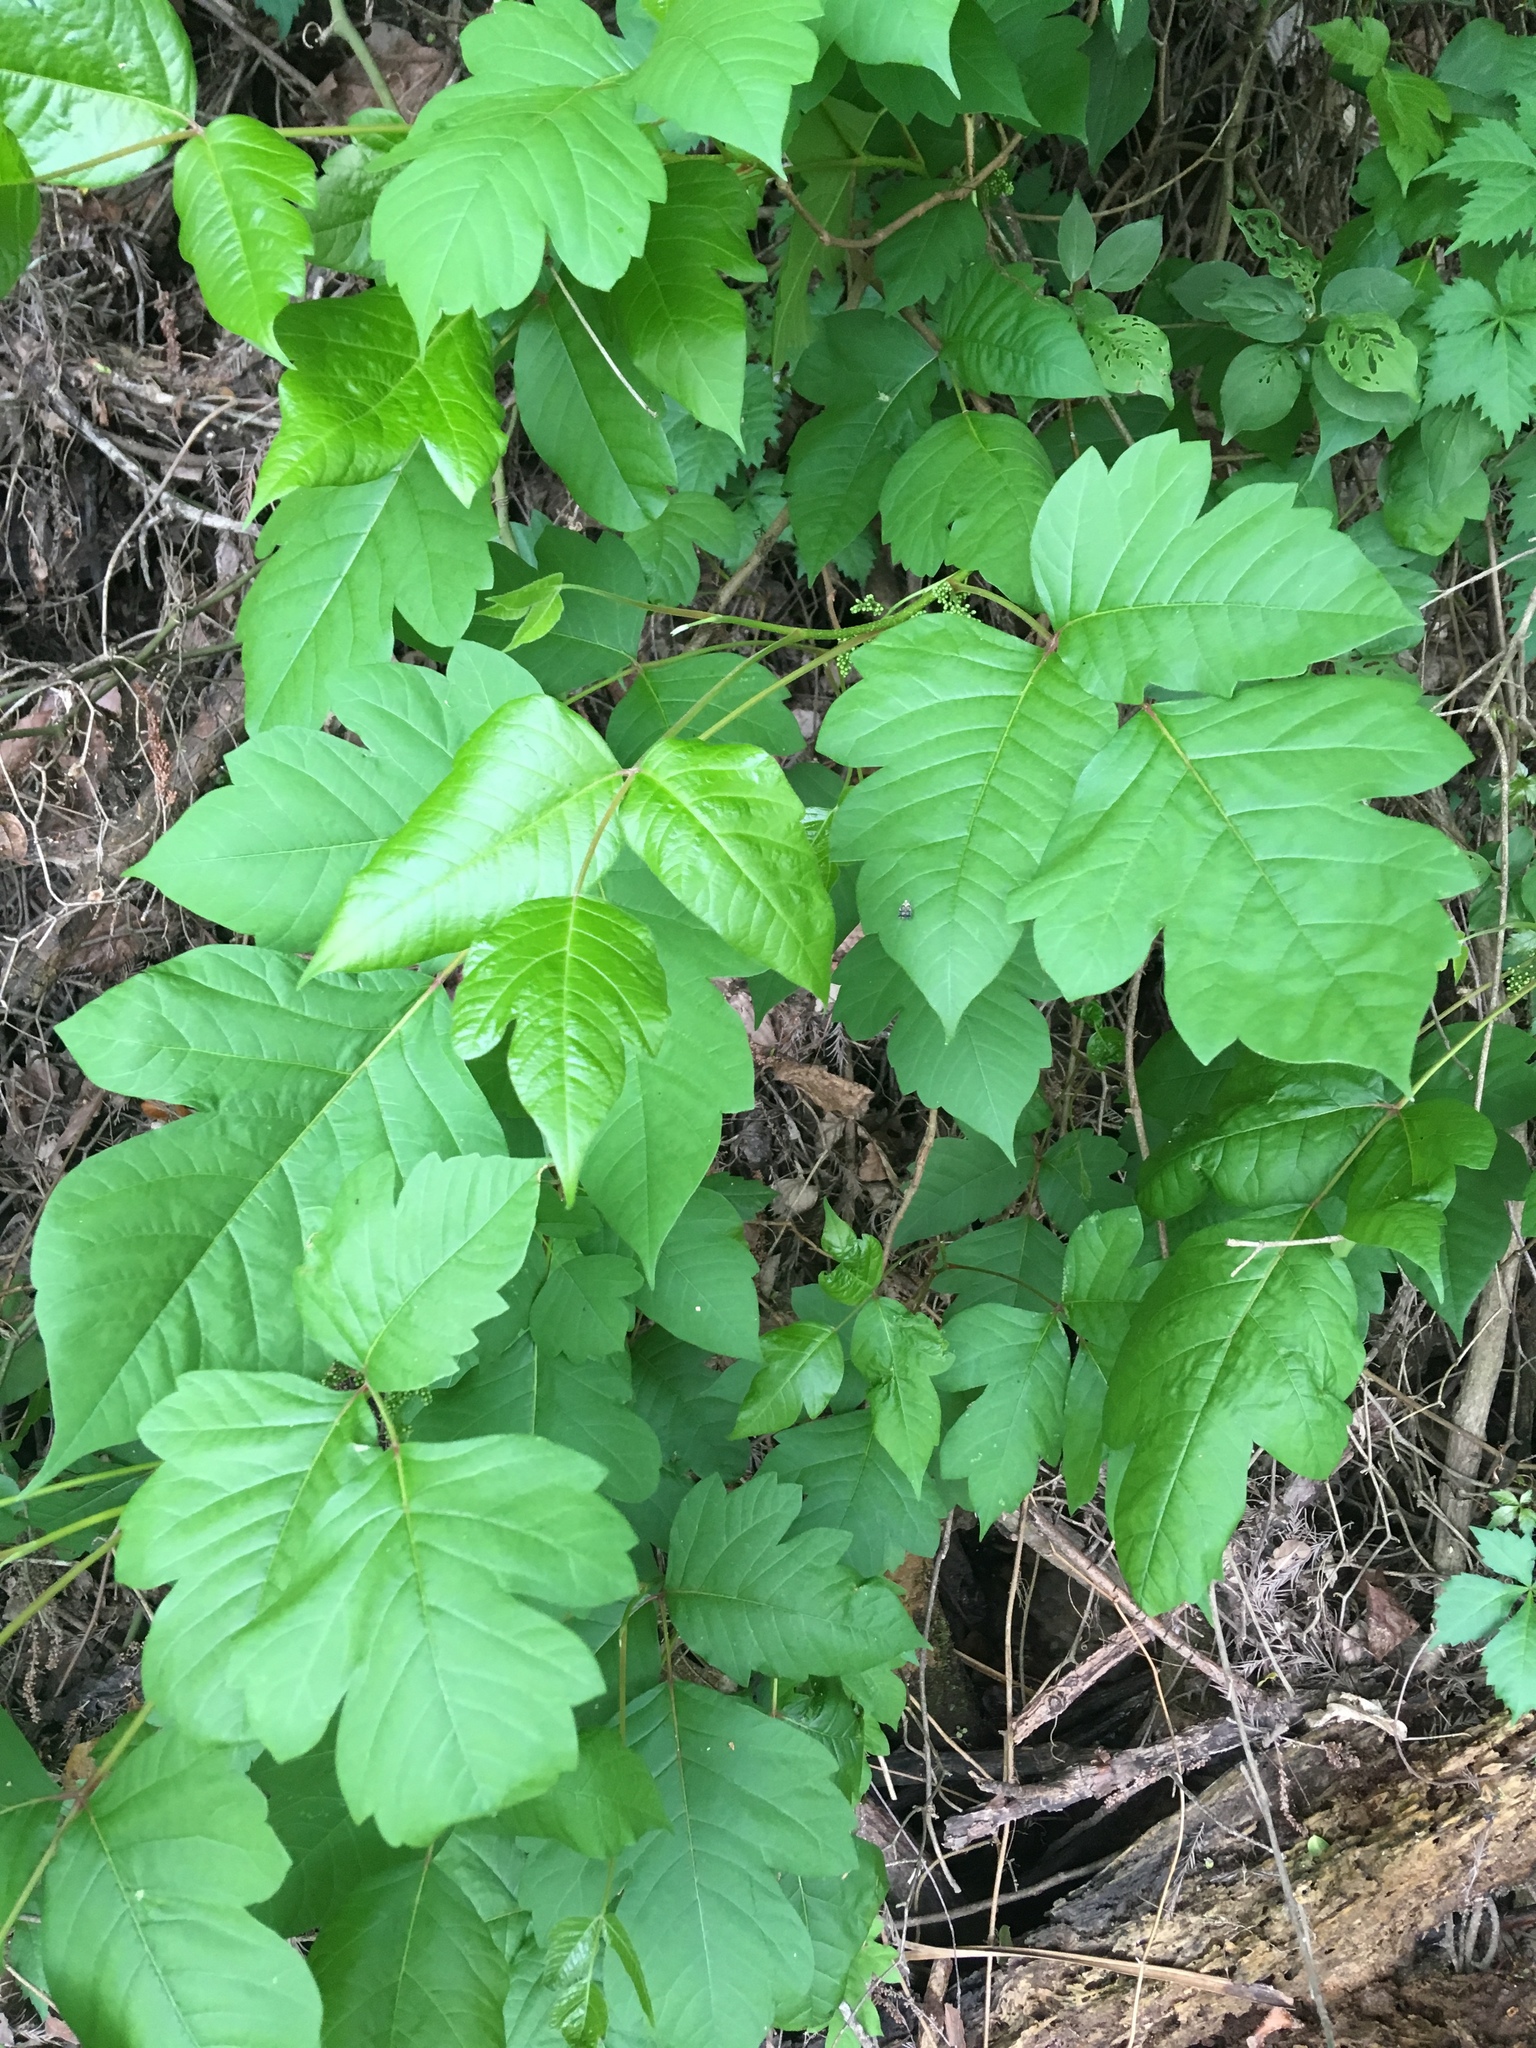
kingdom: Plantae
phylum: Tracheophyta
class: Magnoliopsida
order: Sapindales
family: Anacardiaceae
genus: Toxicodendron
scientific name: Toxicodendron radicans
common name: Poison ivy
